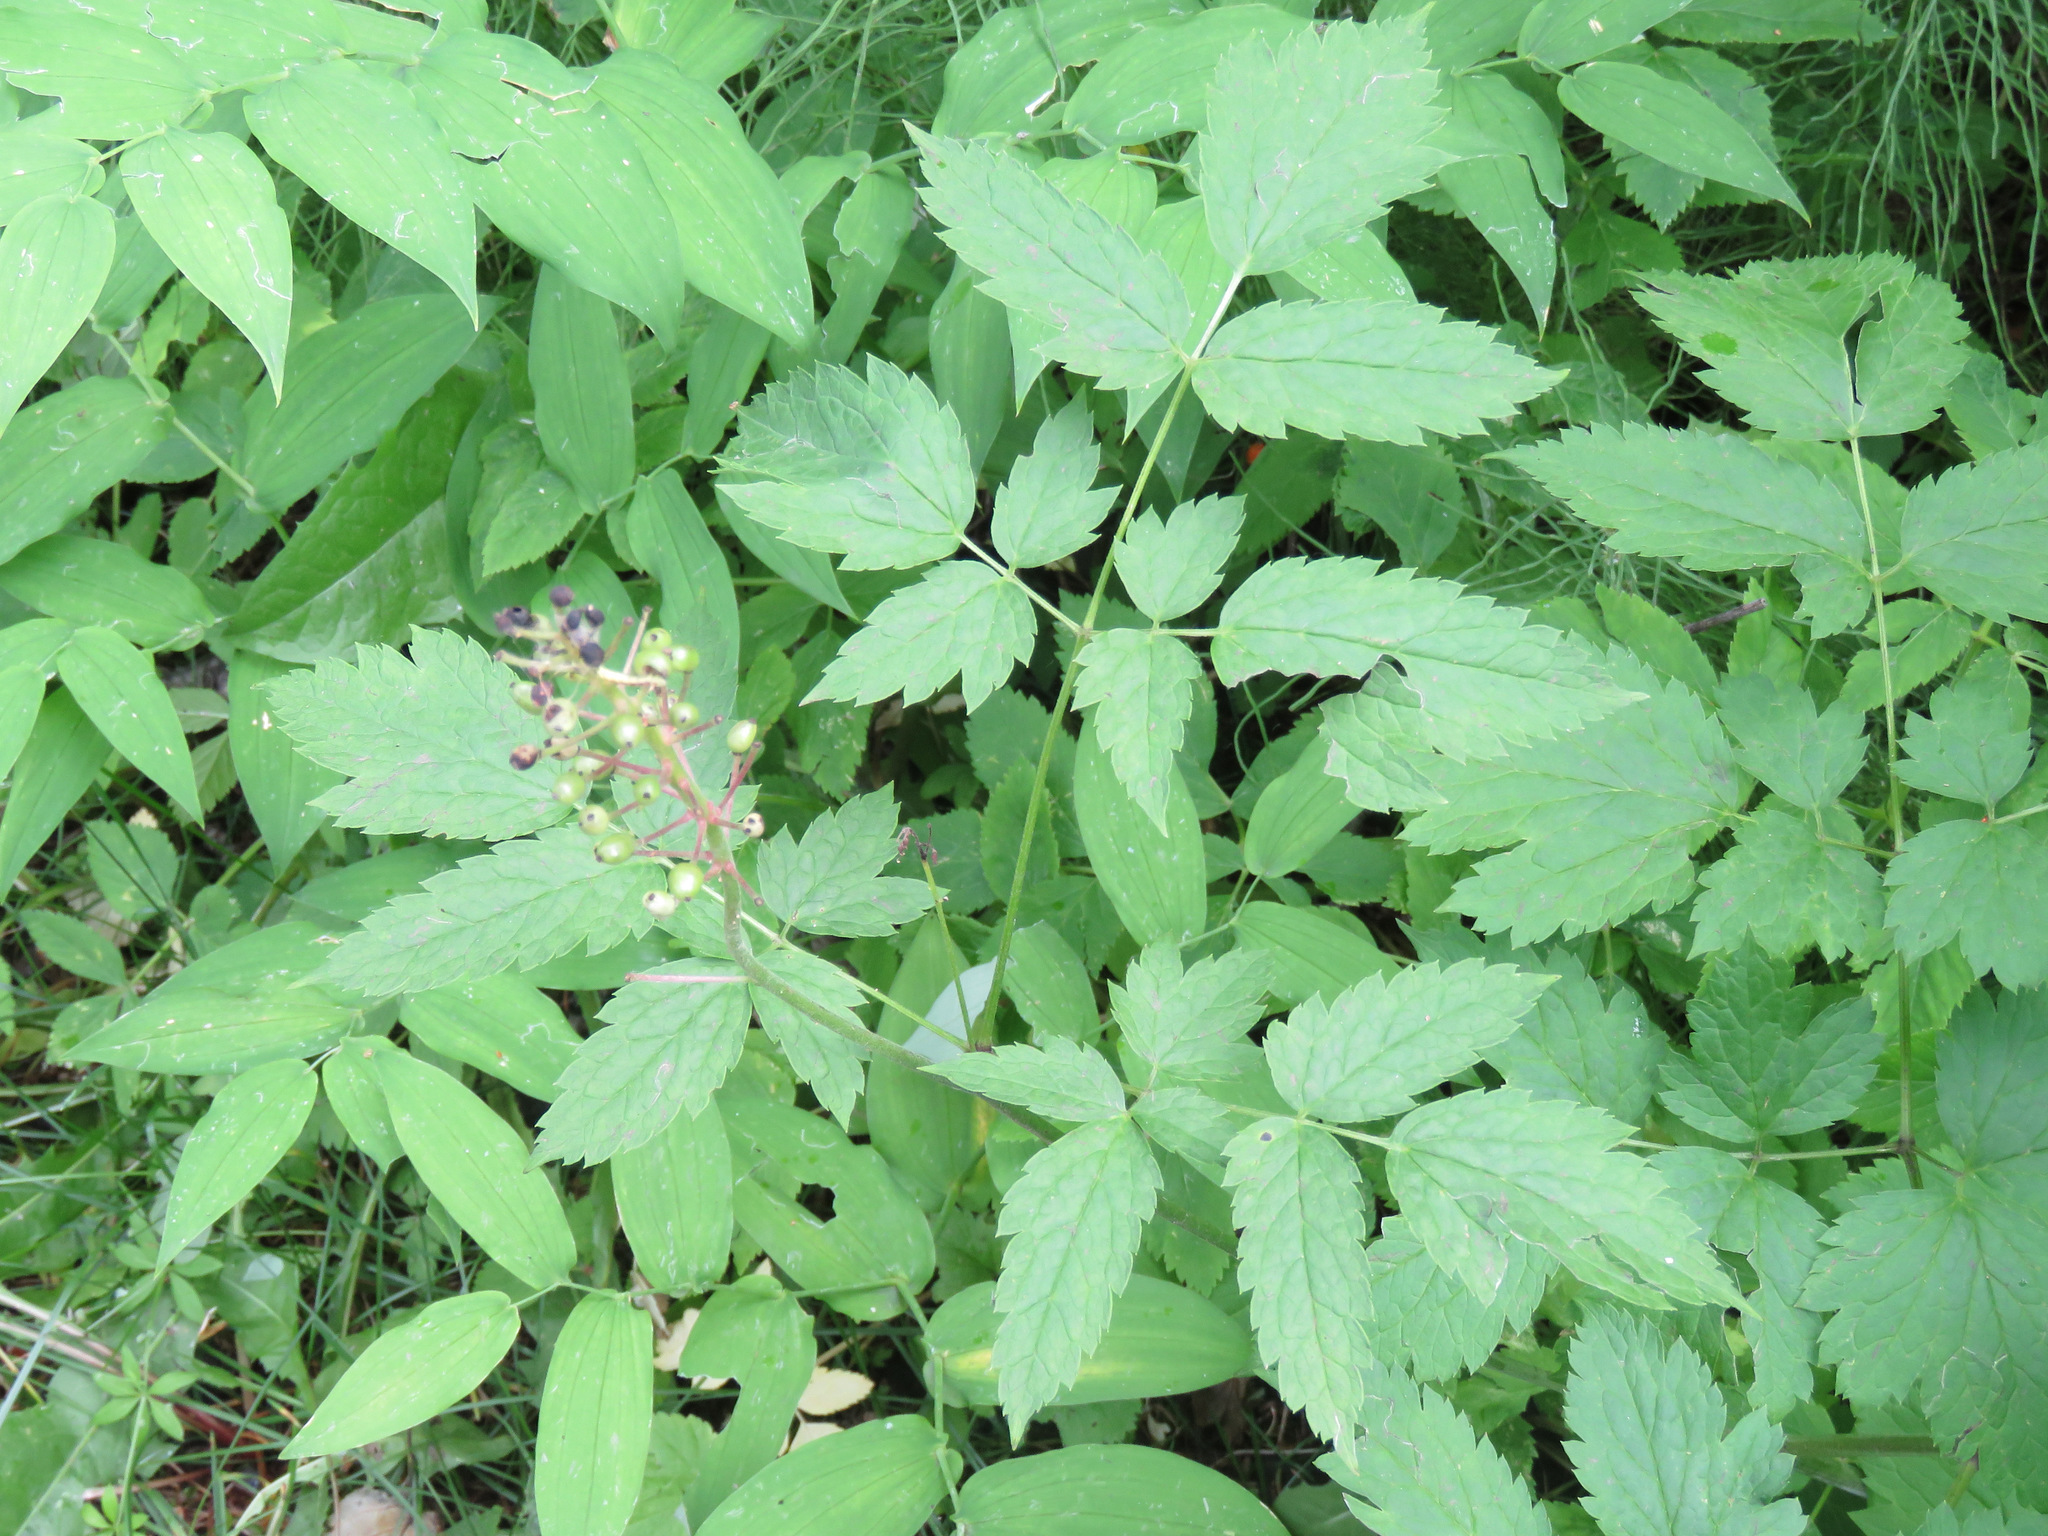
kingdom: Plantae
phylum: Tracheophyta
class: Magnoliopsida
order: Ranunculales
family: Ranunculaceae
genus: Actaea
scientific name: Actaea rubra
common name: Red baneberry
